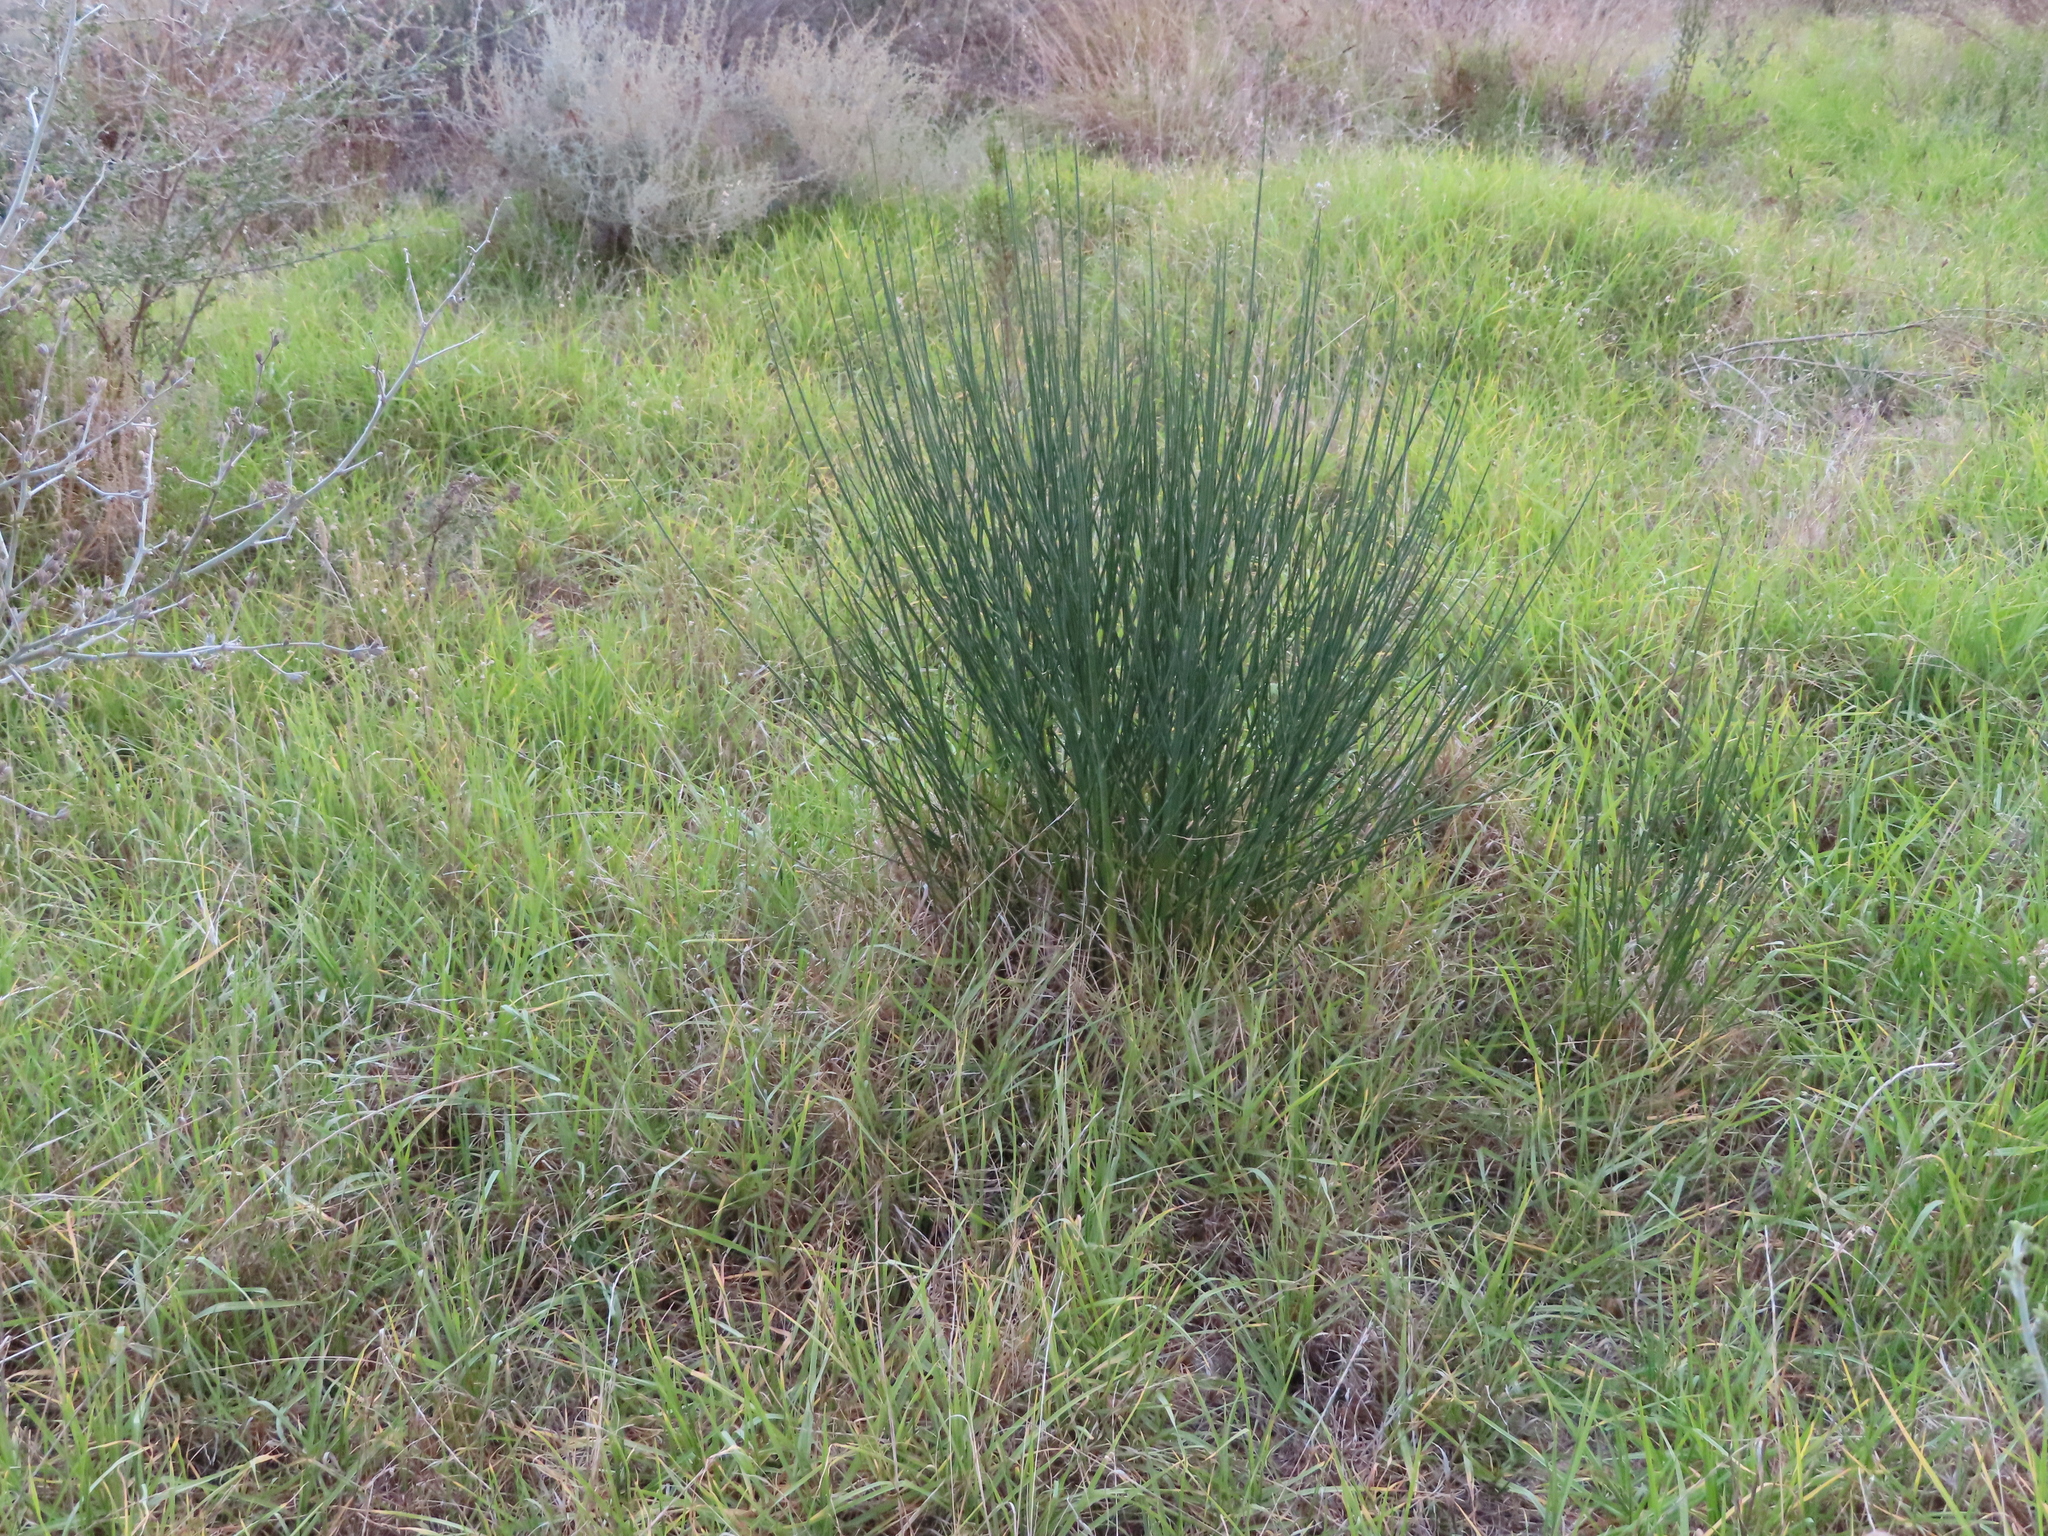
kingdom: Plantae
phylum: Tracheophyta
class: Magnoliopsida
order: Fabales
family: Fabaceae
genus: Spartium
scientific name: Spartium junceum
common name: Spanish broom
